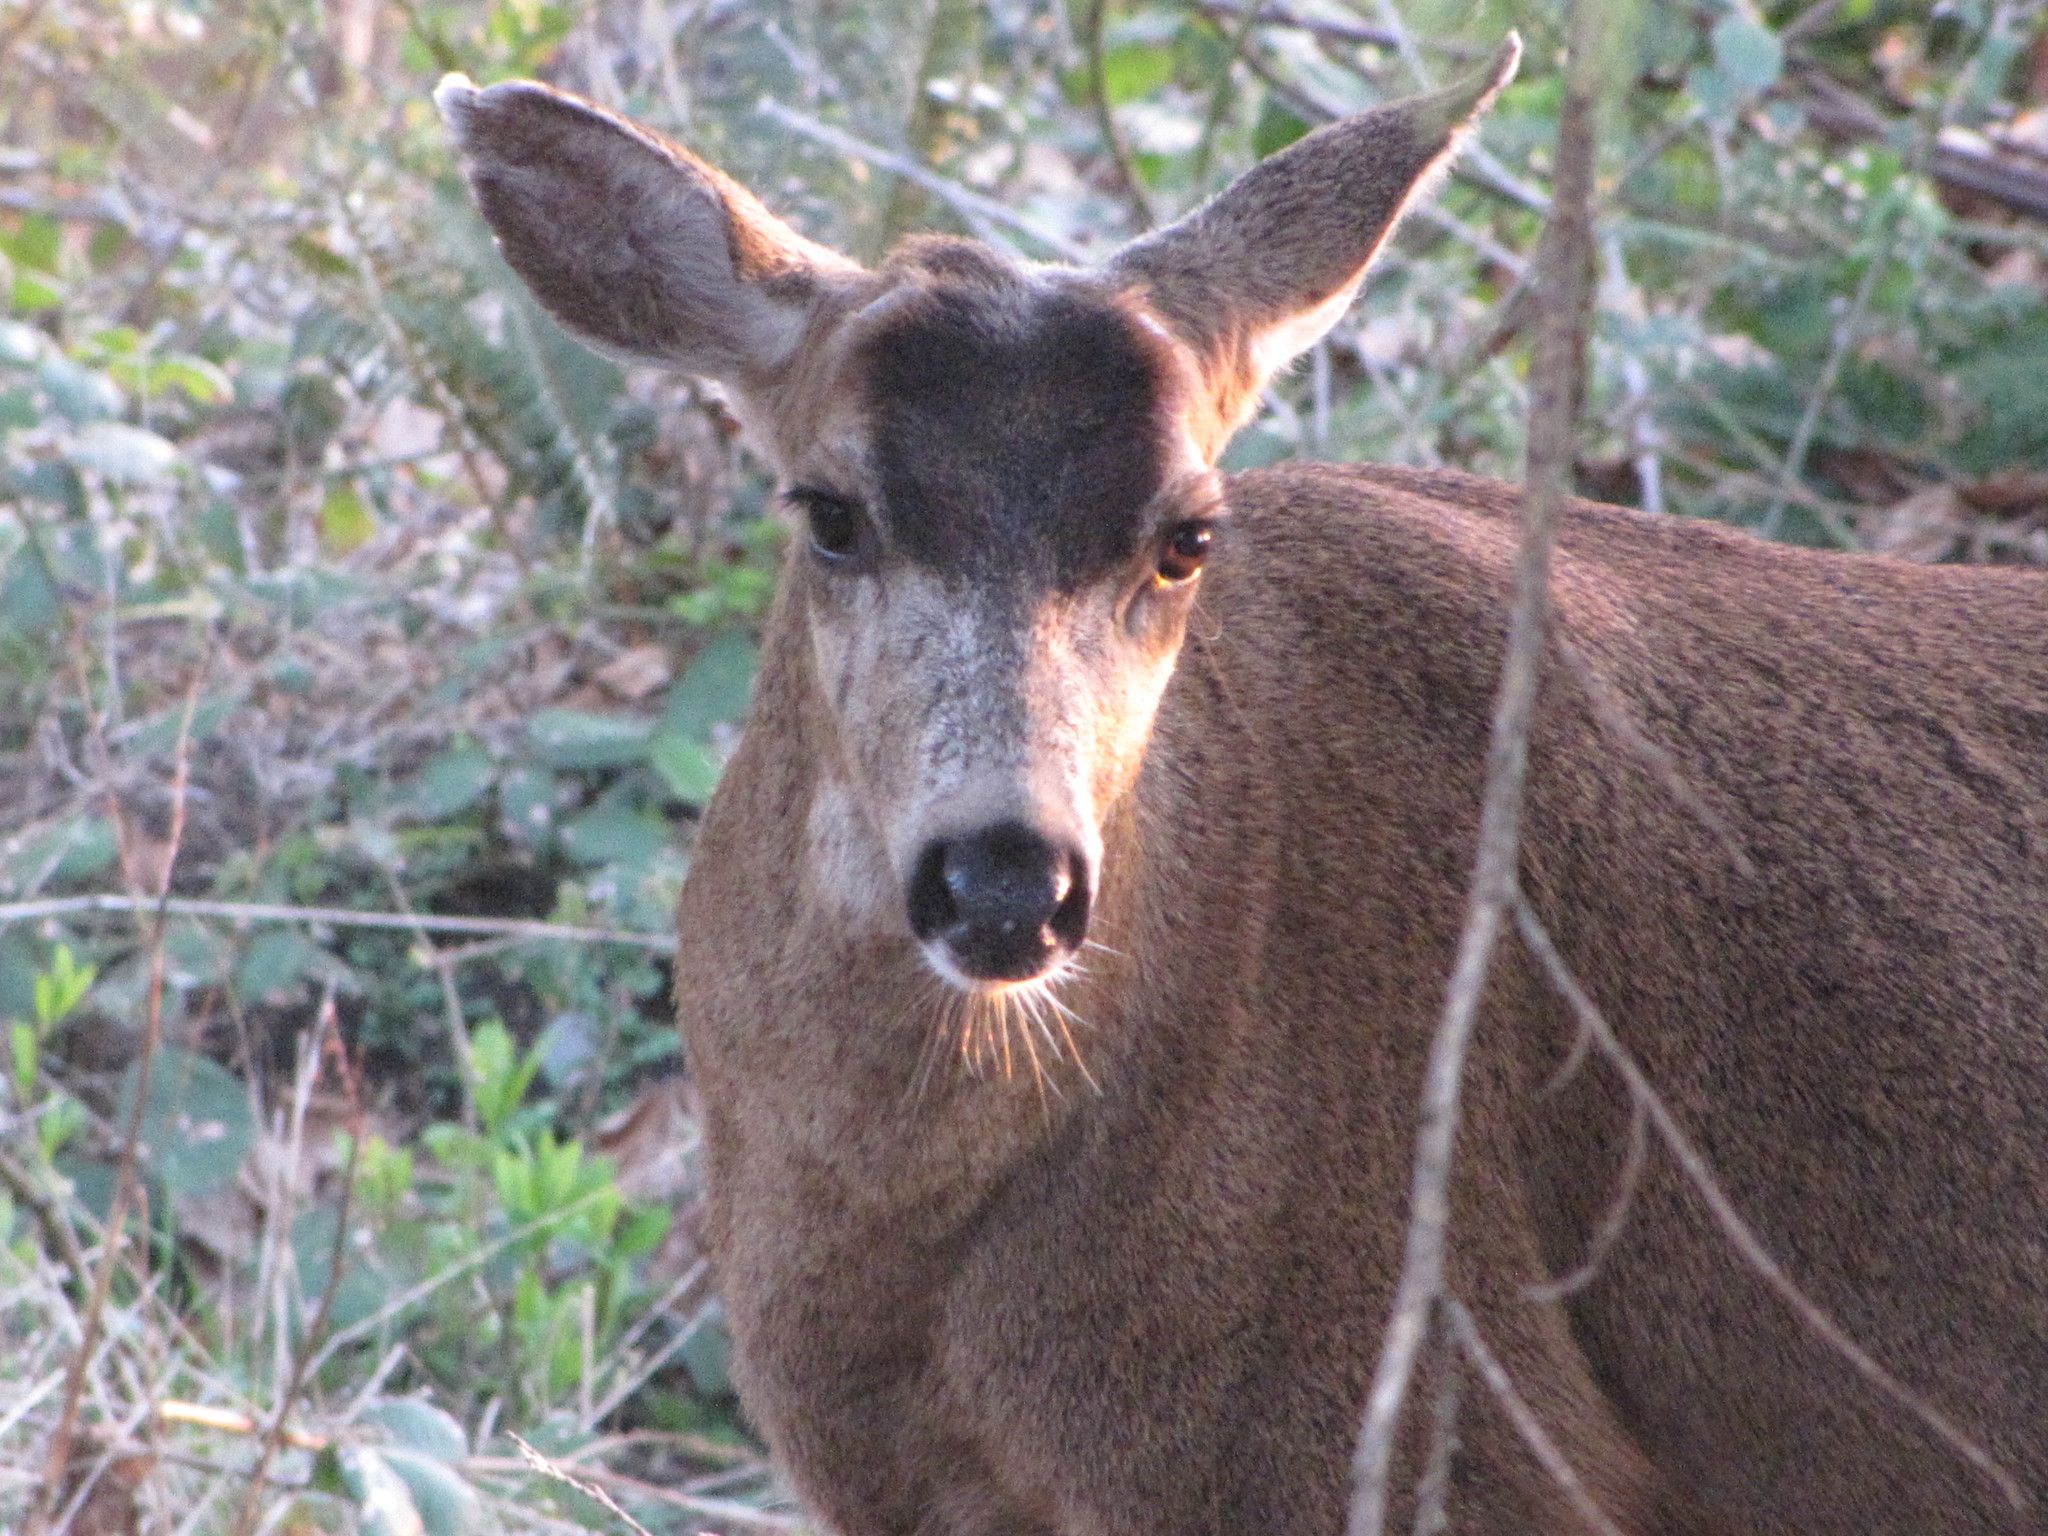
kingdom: Animalia
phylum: Chordata
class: Mammalia
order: Artiodactyla
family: Cervidae
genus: Odocoileus
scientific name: Odocoileus hemionus
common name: Mule deer
